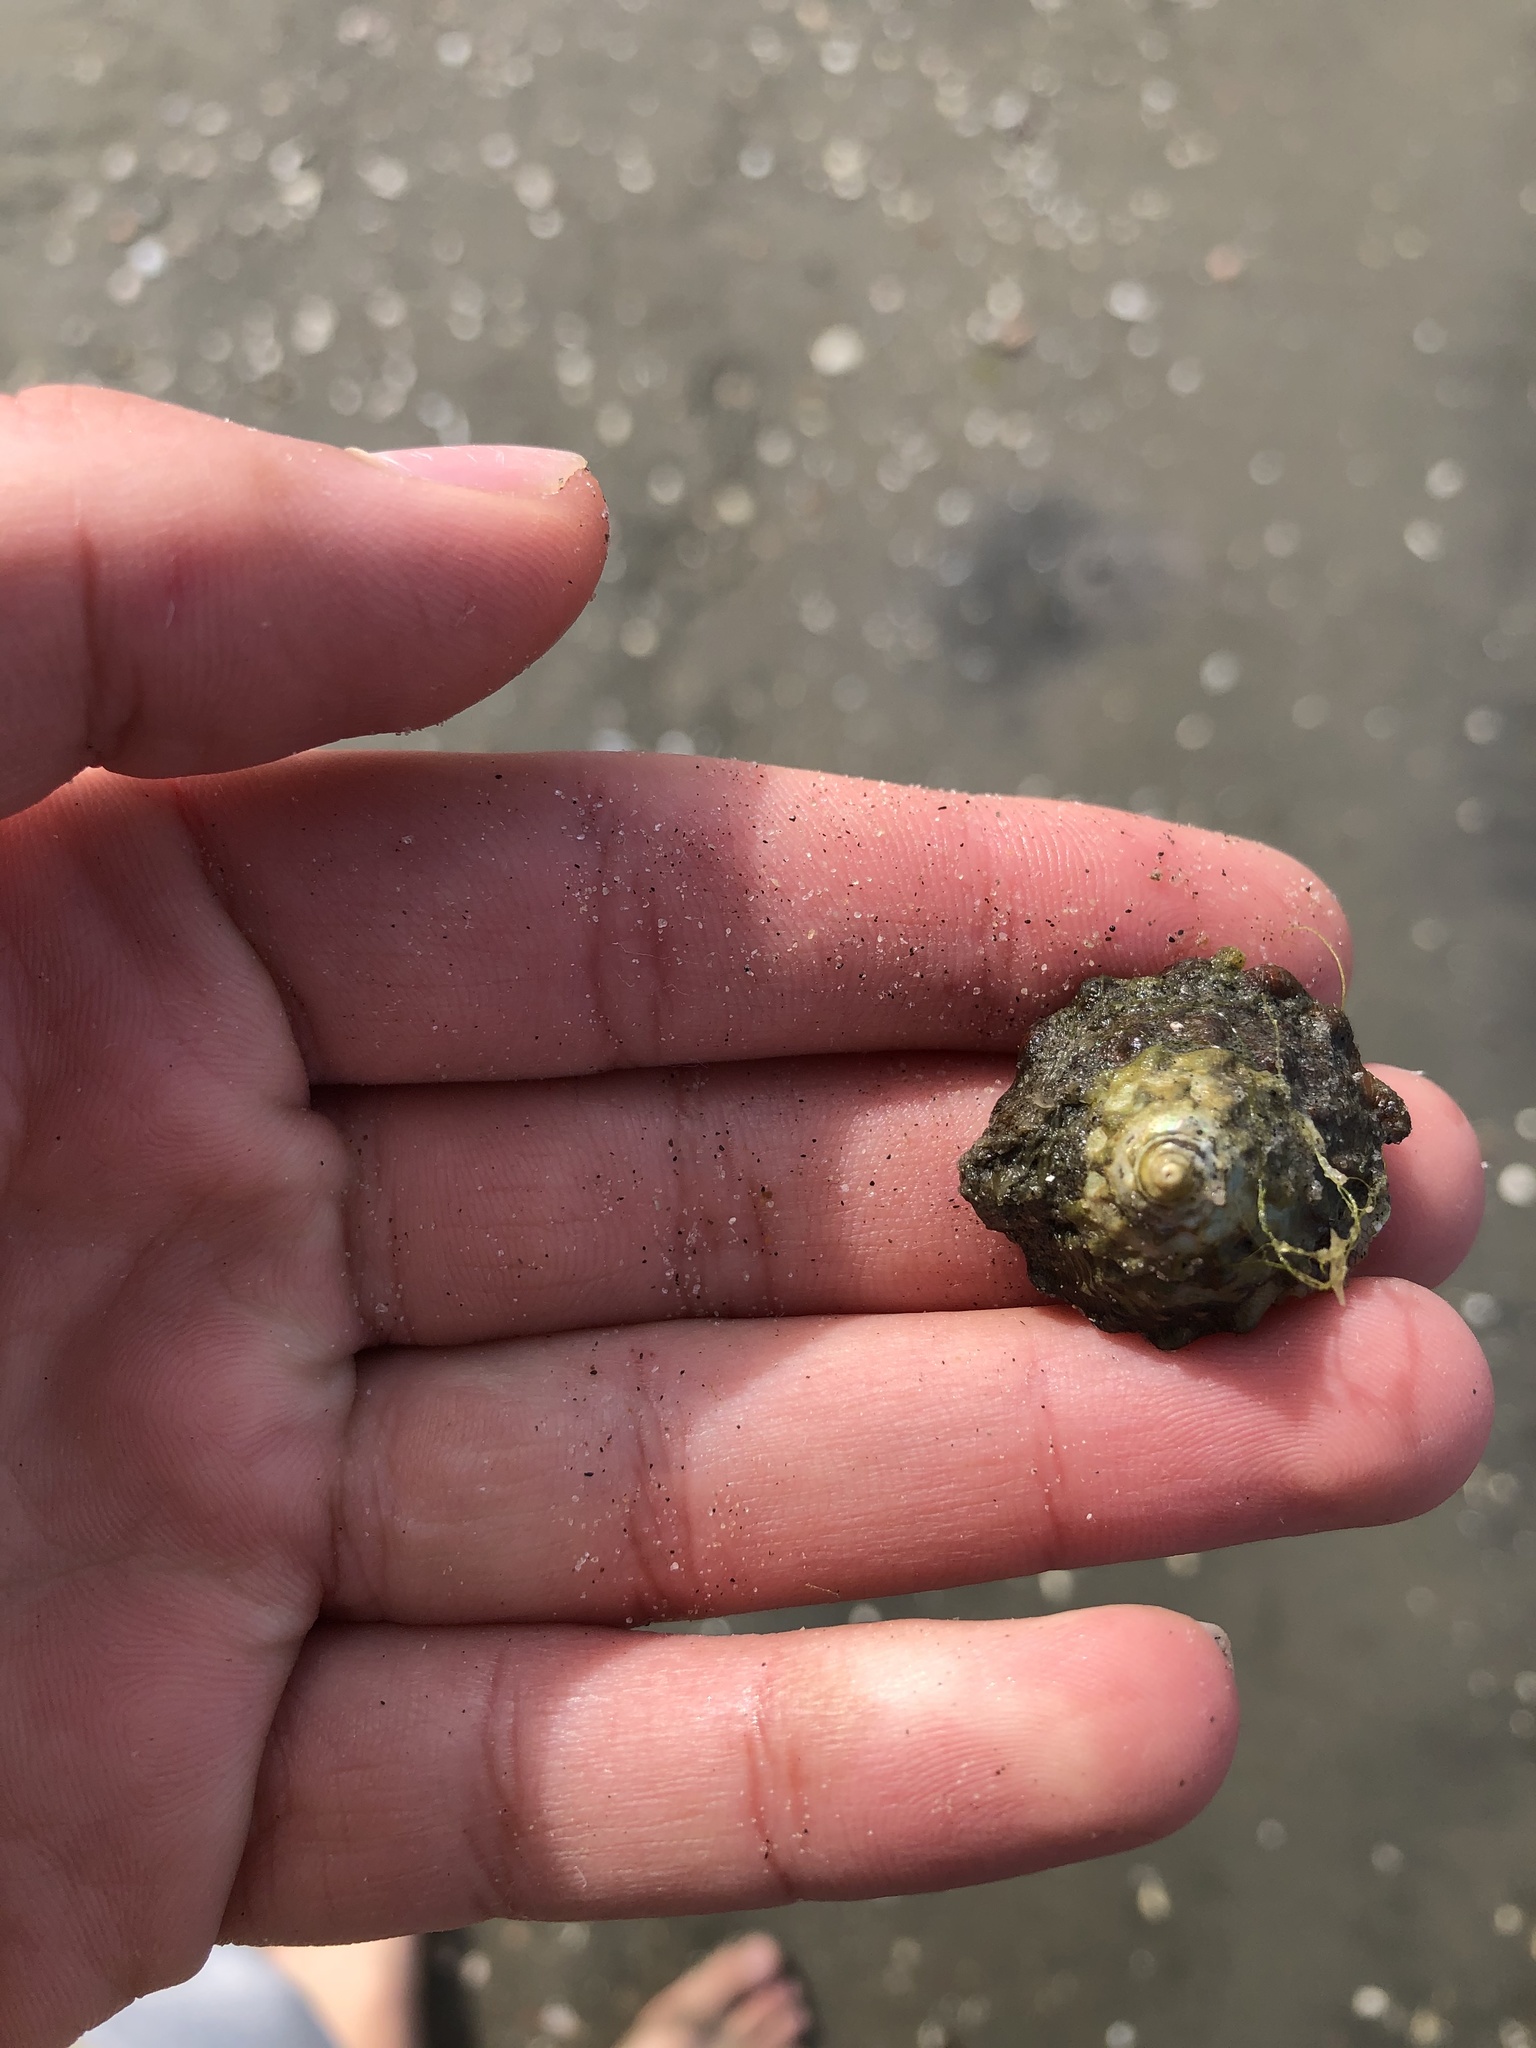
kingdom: Animalia
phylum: Mollusca
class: Gastropoda
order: Trochida
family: Turbinidae
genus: Megastraea
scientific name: Megastraea undosa
